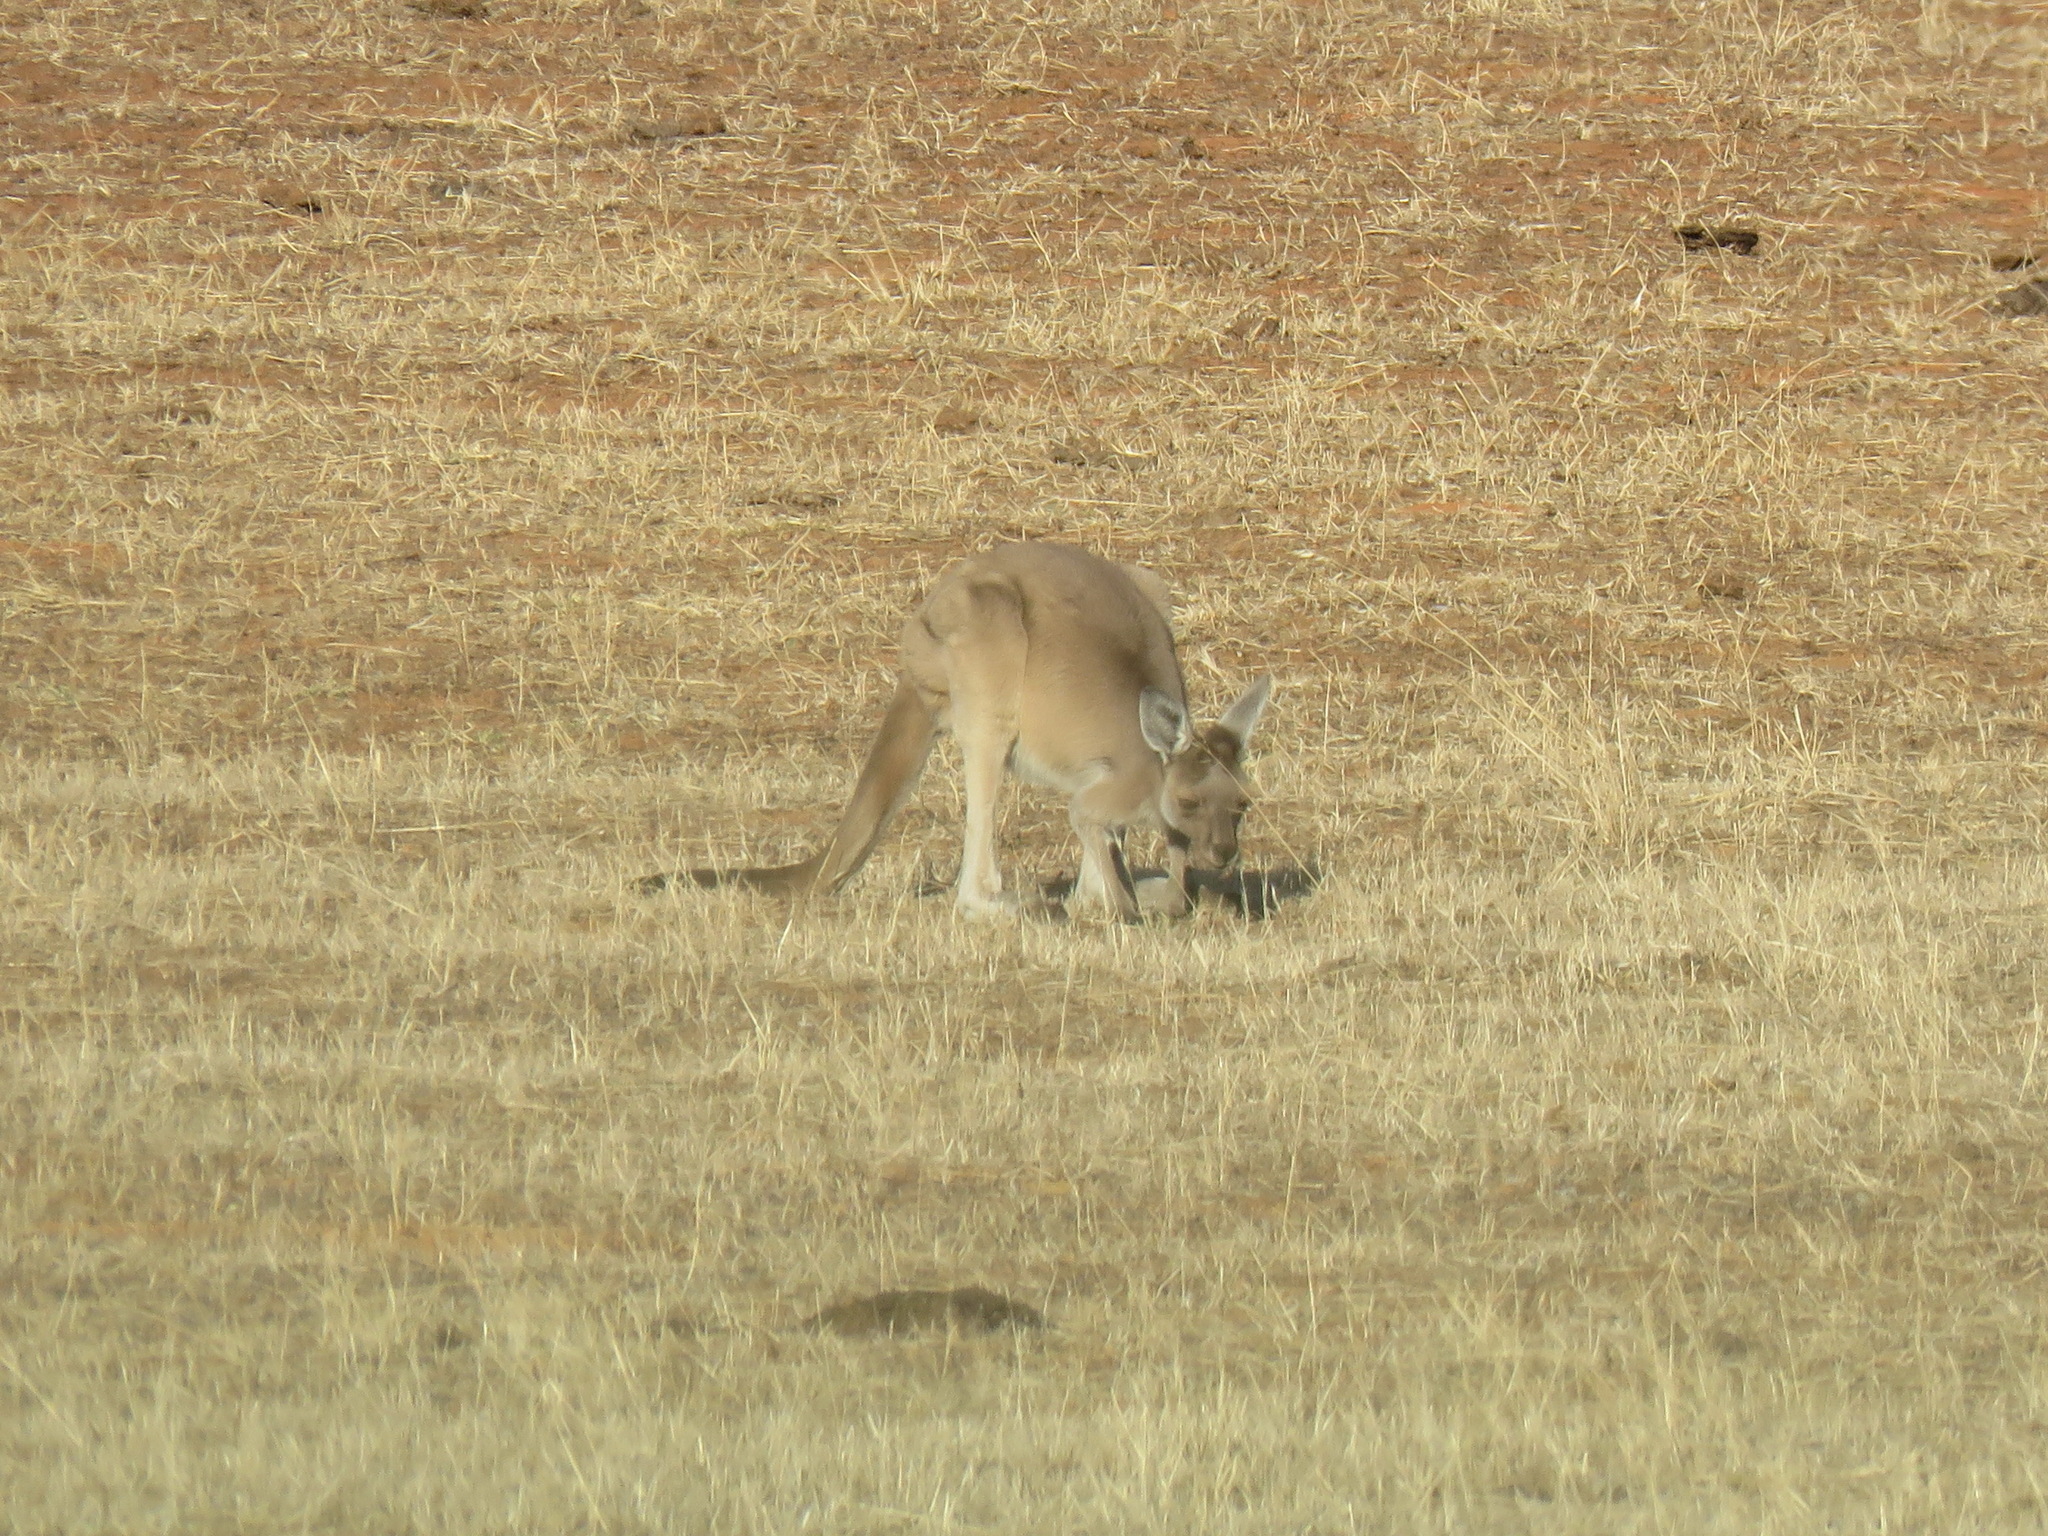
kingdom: Animalia
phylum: Chordata
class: Mammalia
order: Diprotodontia
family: Macropodidae
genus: Macropus
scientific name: Macropus fuliginosus
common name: Western grey kangaroo
